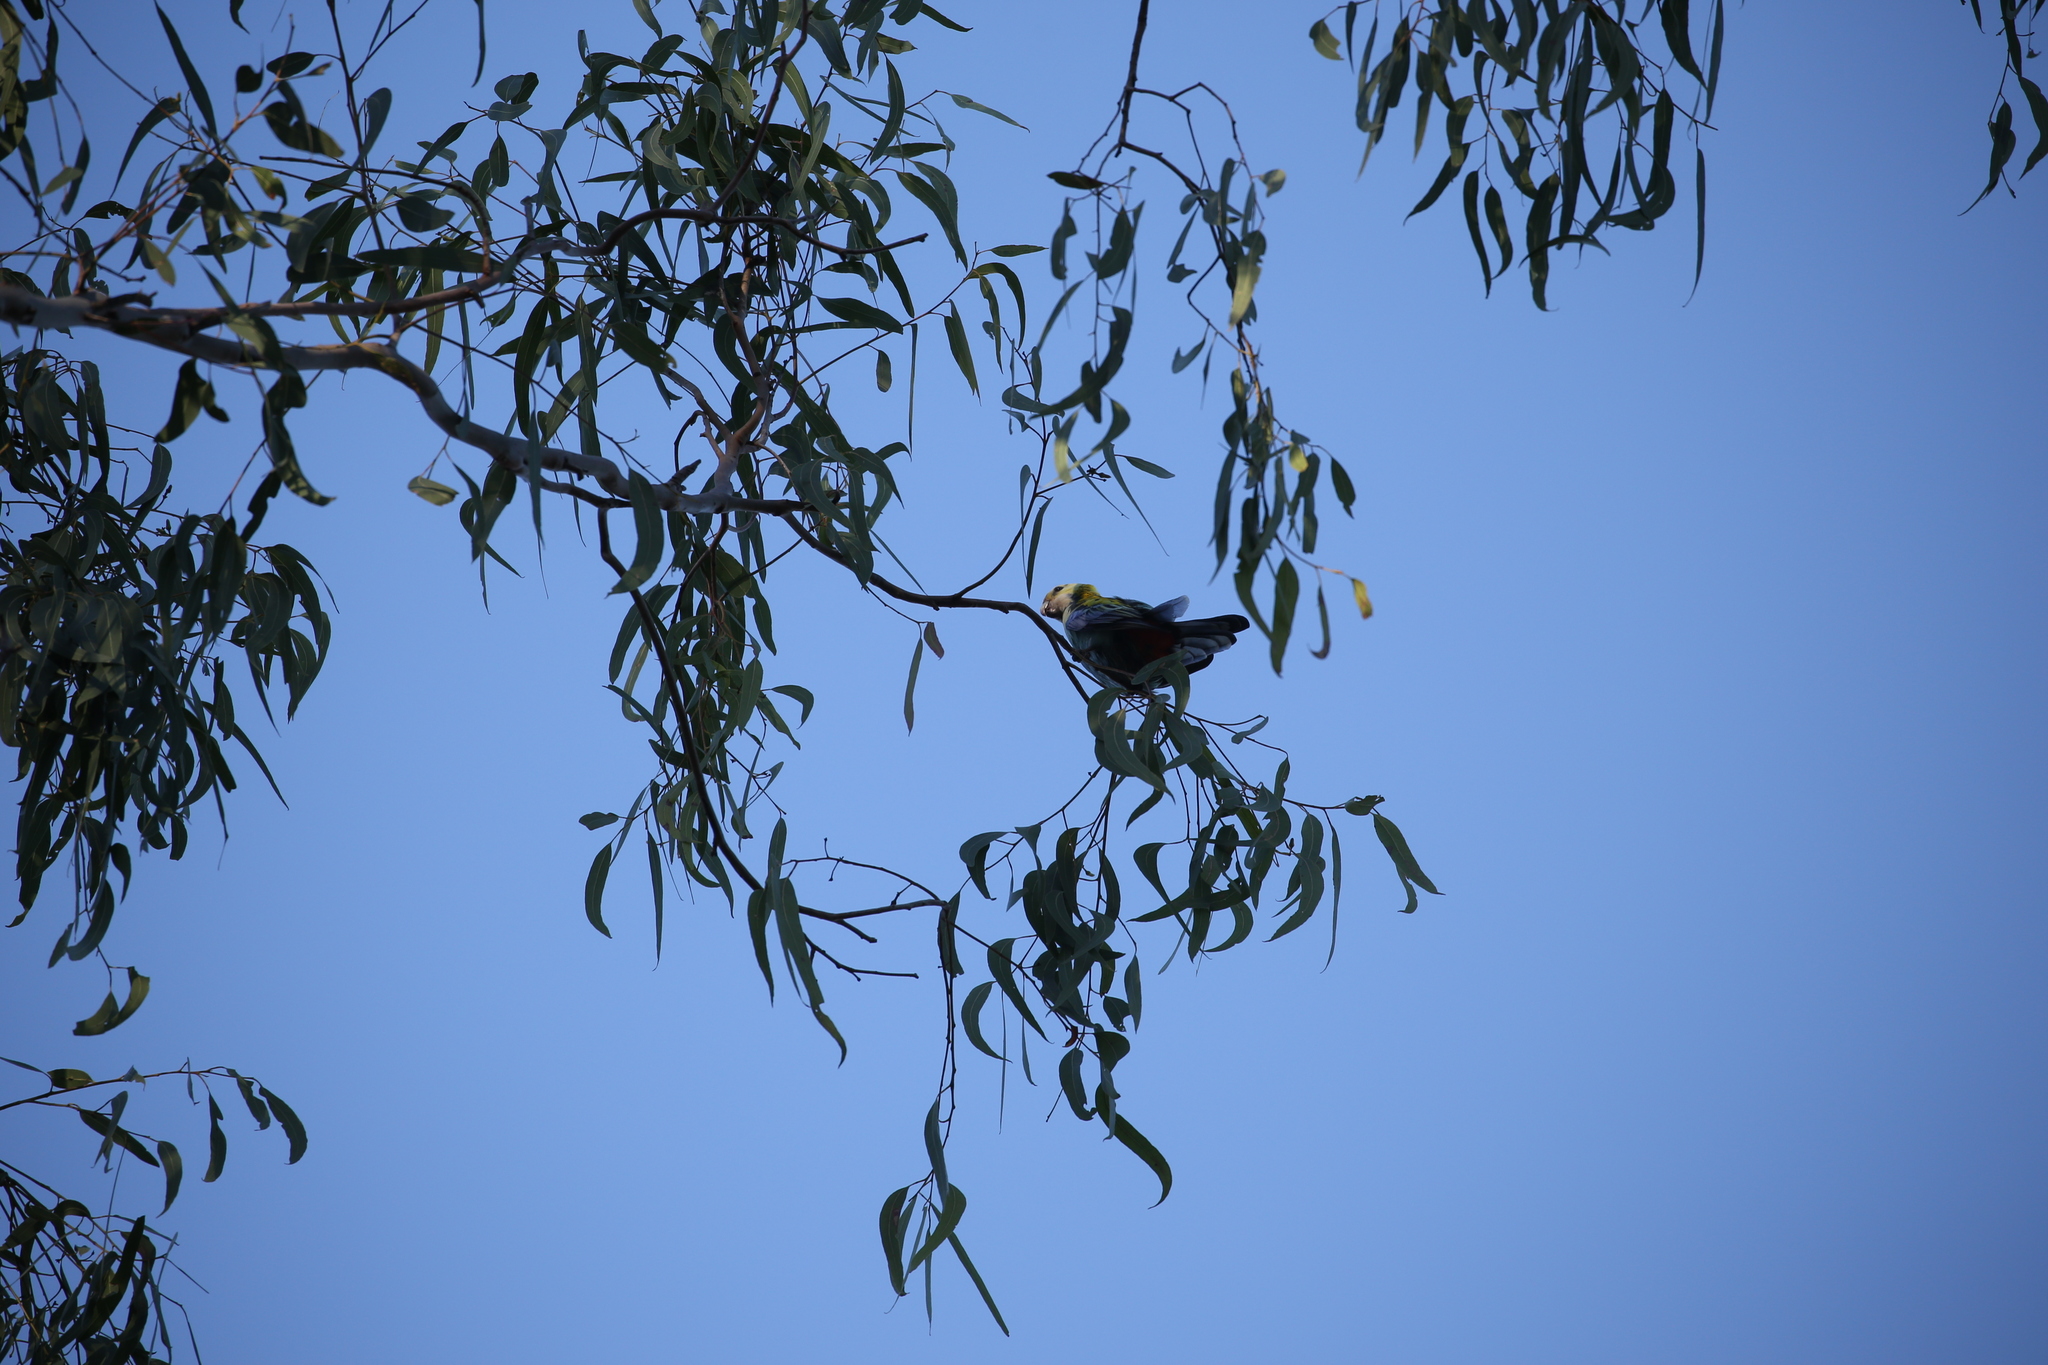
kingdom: Animalia
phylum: Chordata
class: Aves
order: Psittaciformes
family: Psittacidae
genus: Platycercus
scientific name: Platycercus adscitus
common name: Pale-headed rosella
